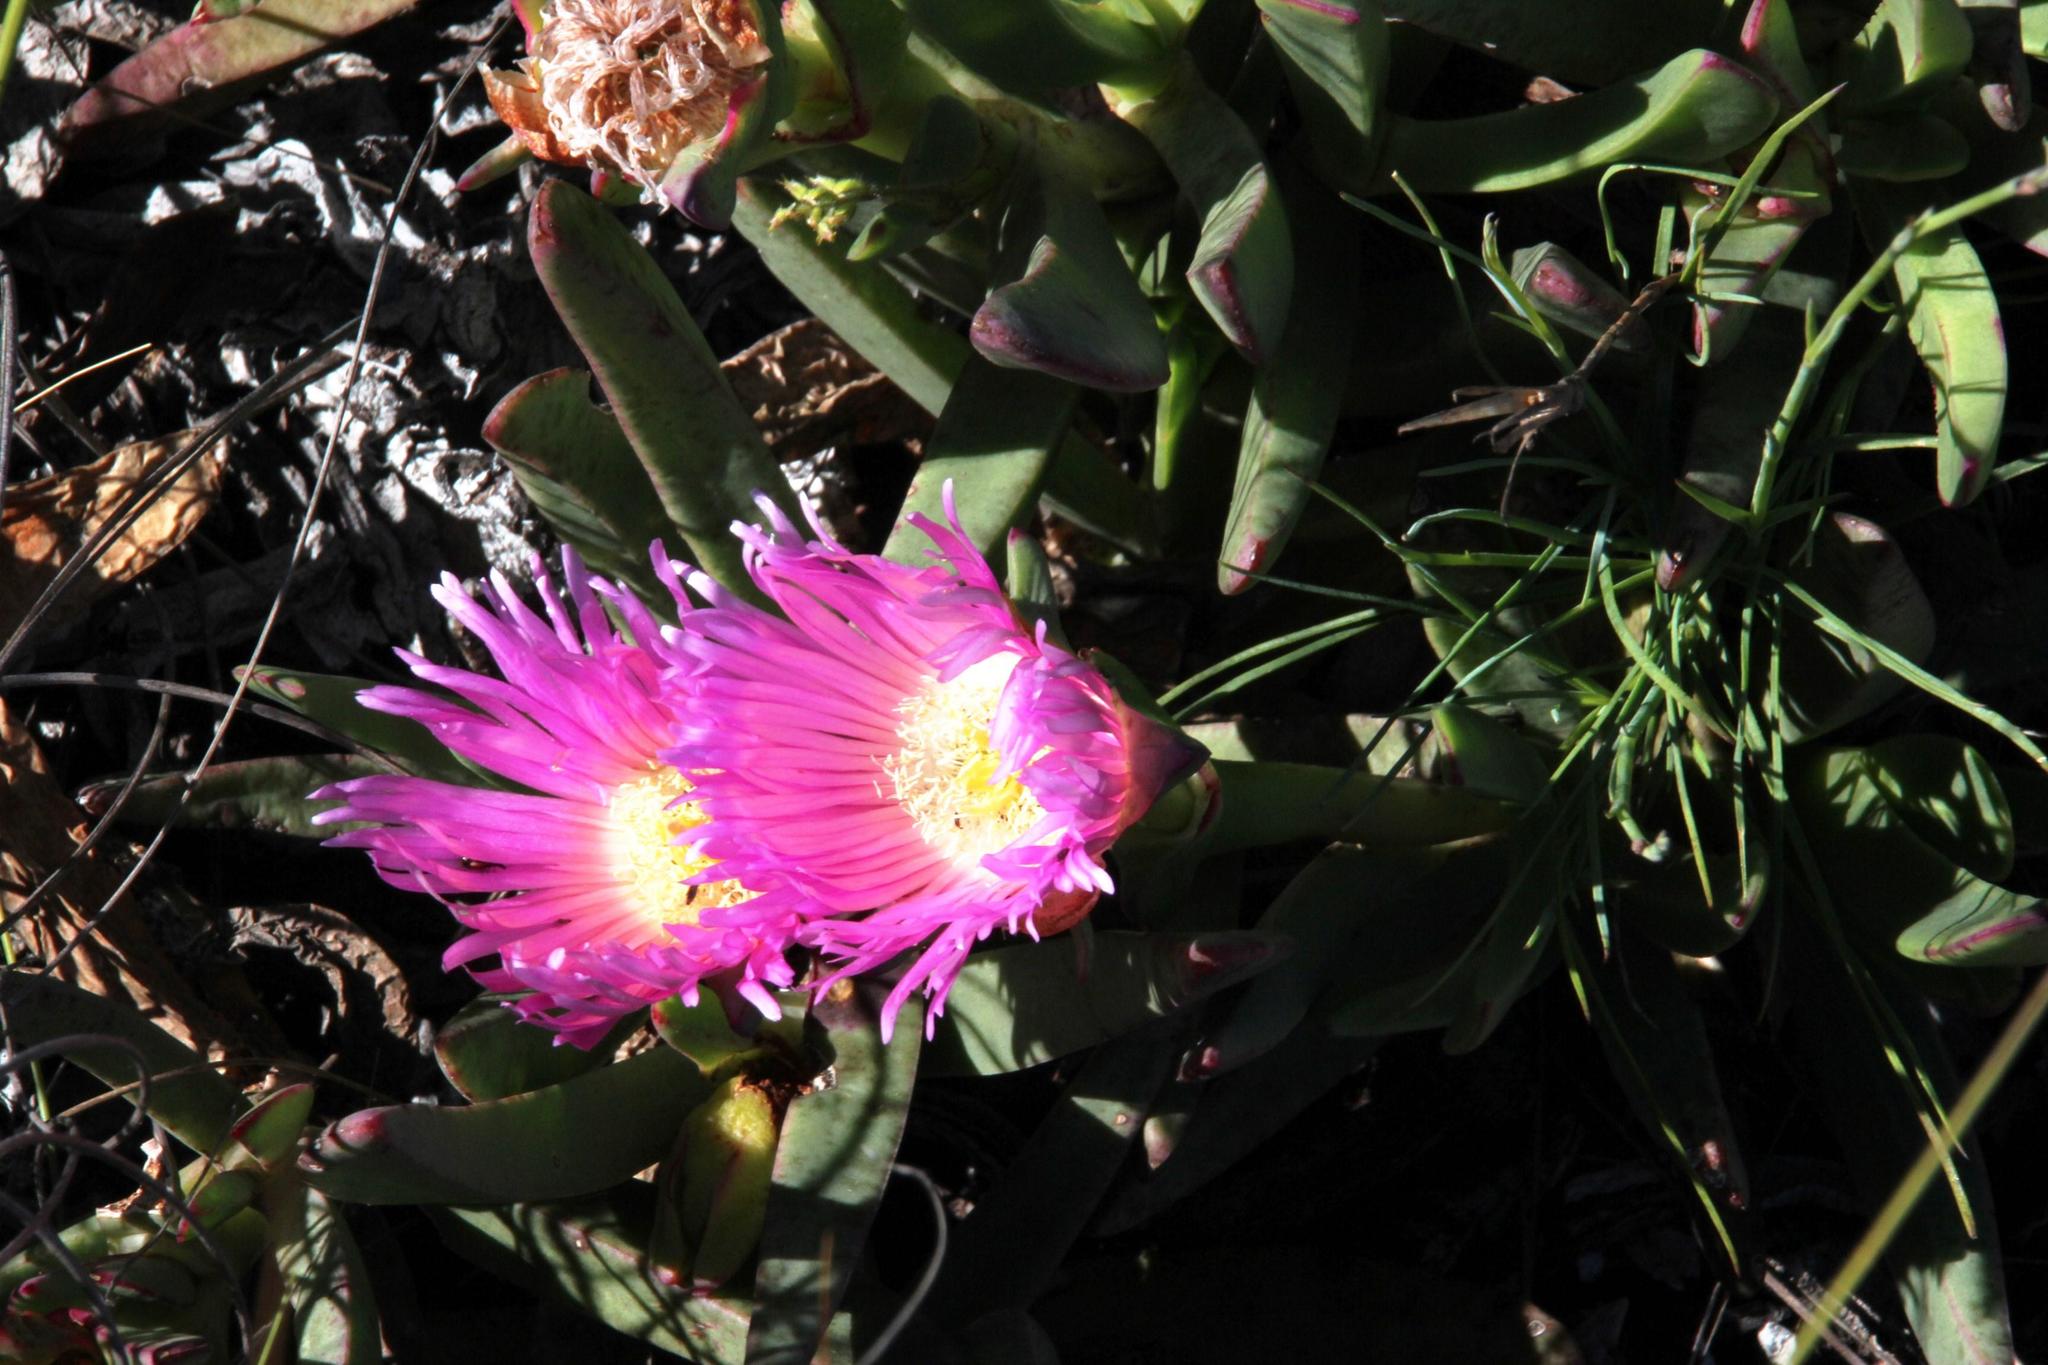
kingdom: Plantae
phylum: Tracheophyta
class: Magnoliopsida
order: Caryophyllales
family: Aizoaceae
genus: Carpobrotus
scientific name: Carpobrotus mellei
